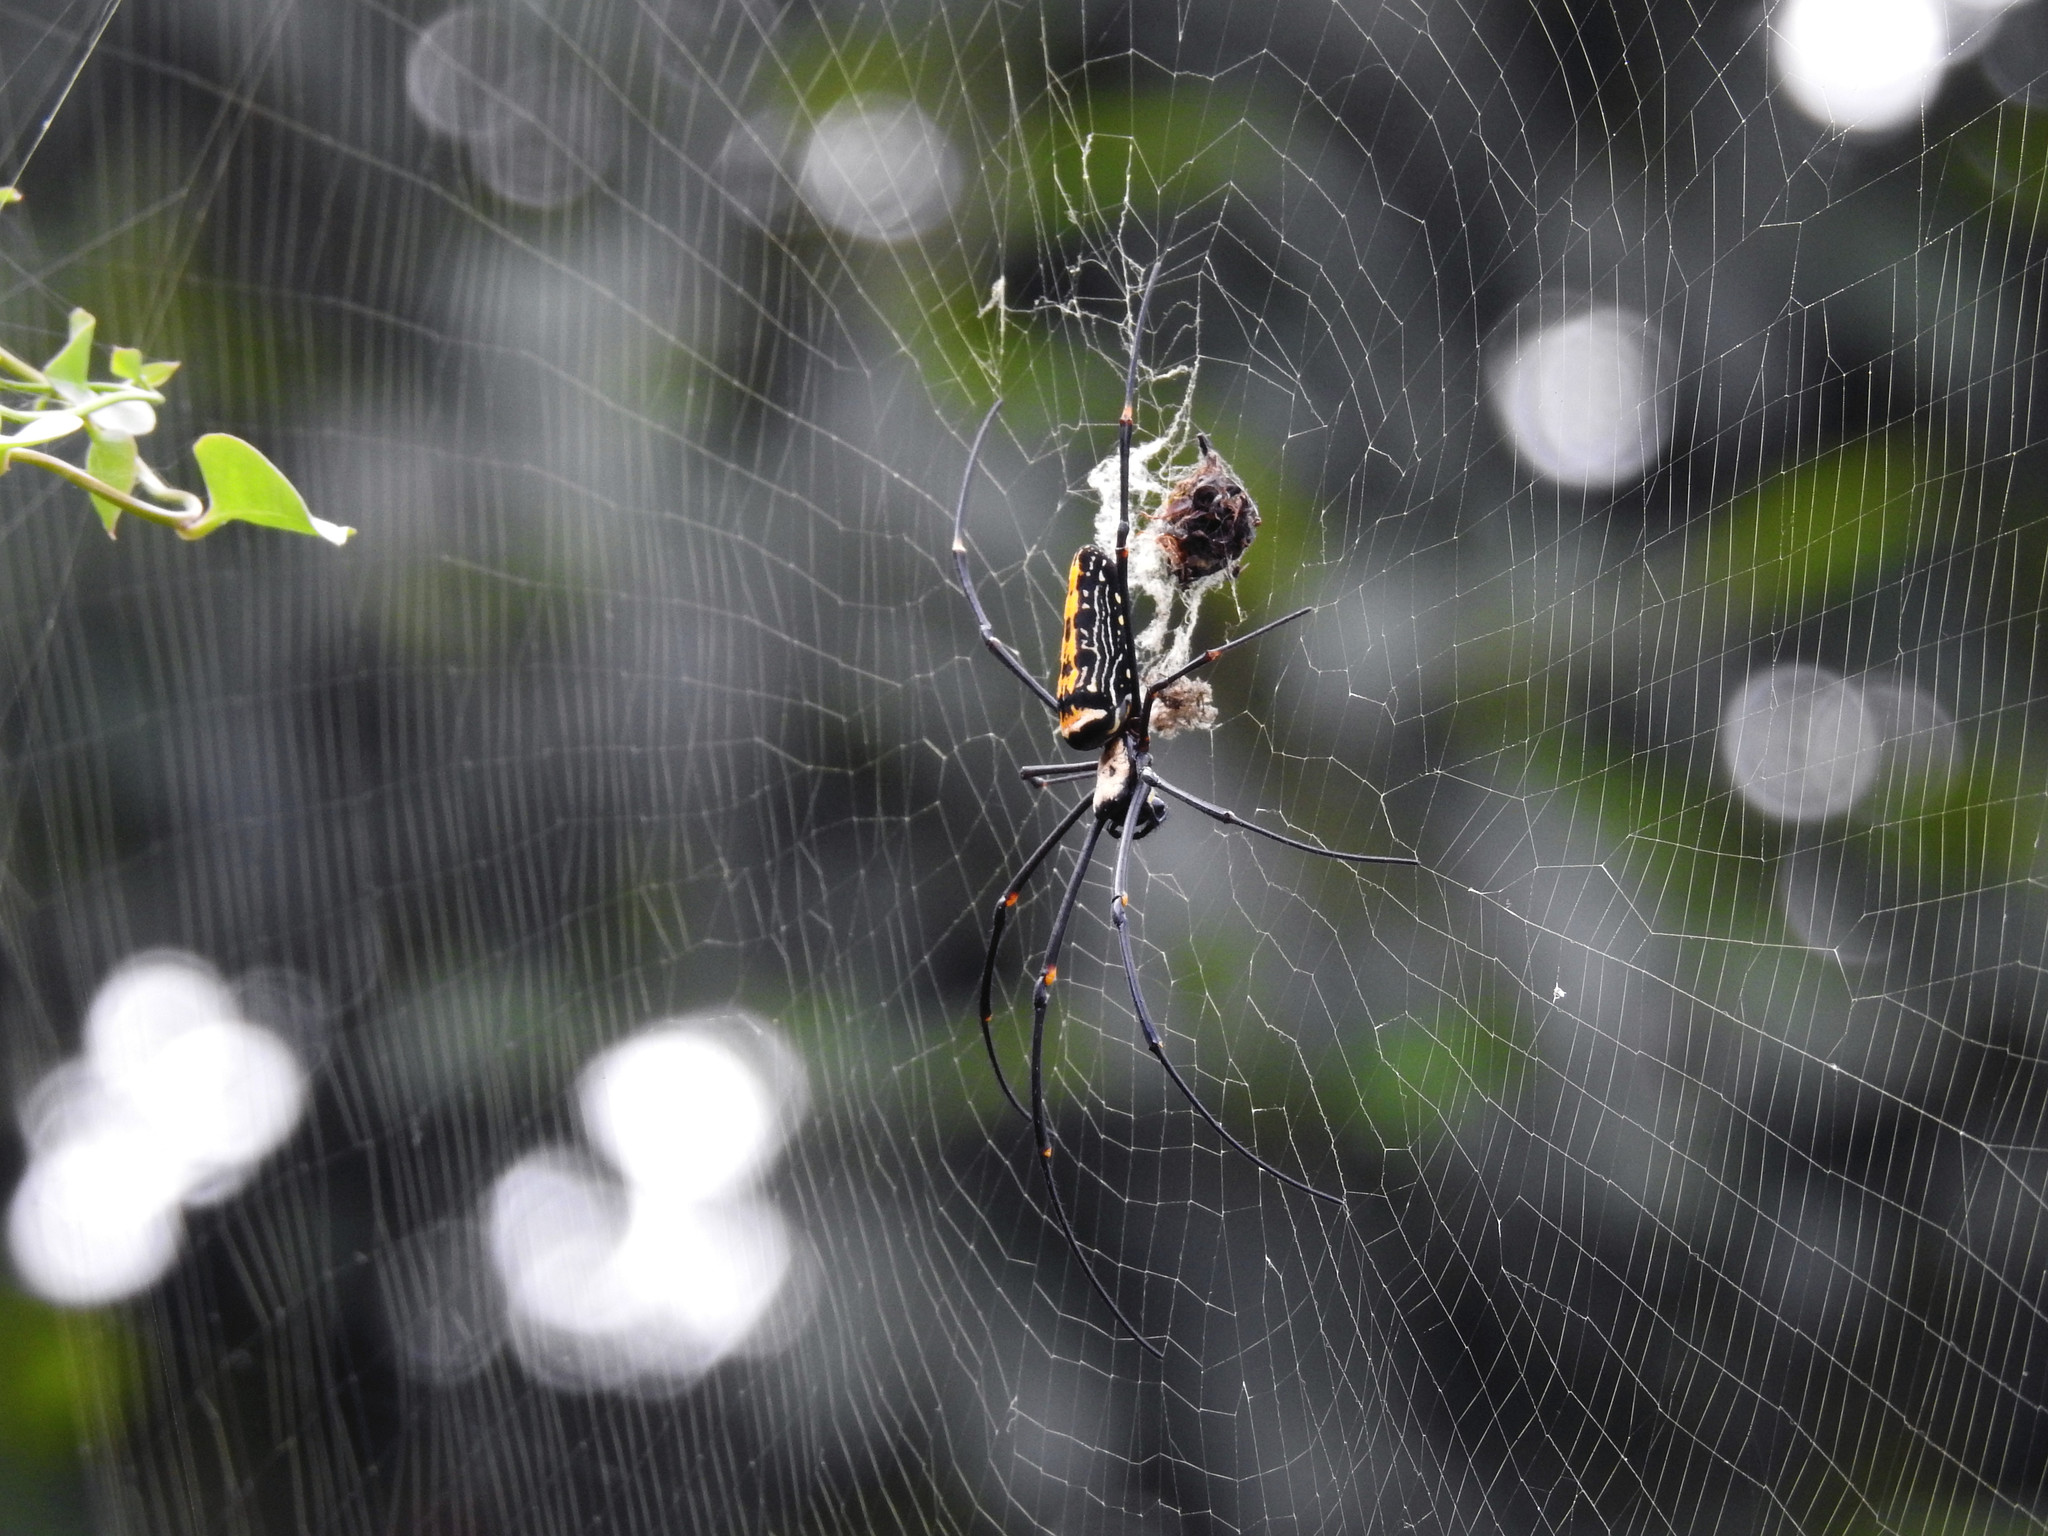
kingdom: Animalia
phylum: Arthropoda
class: Arachnida
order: Araneae
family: Araneidae
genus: Nephila
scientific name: Nephila pilipes
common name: Giant golden orb weaver
